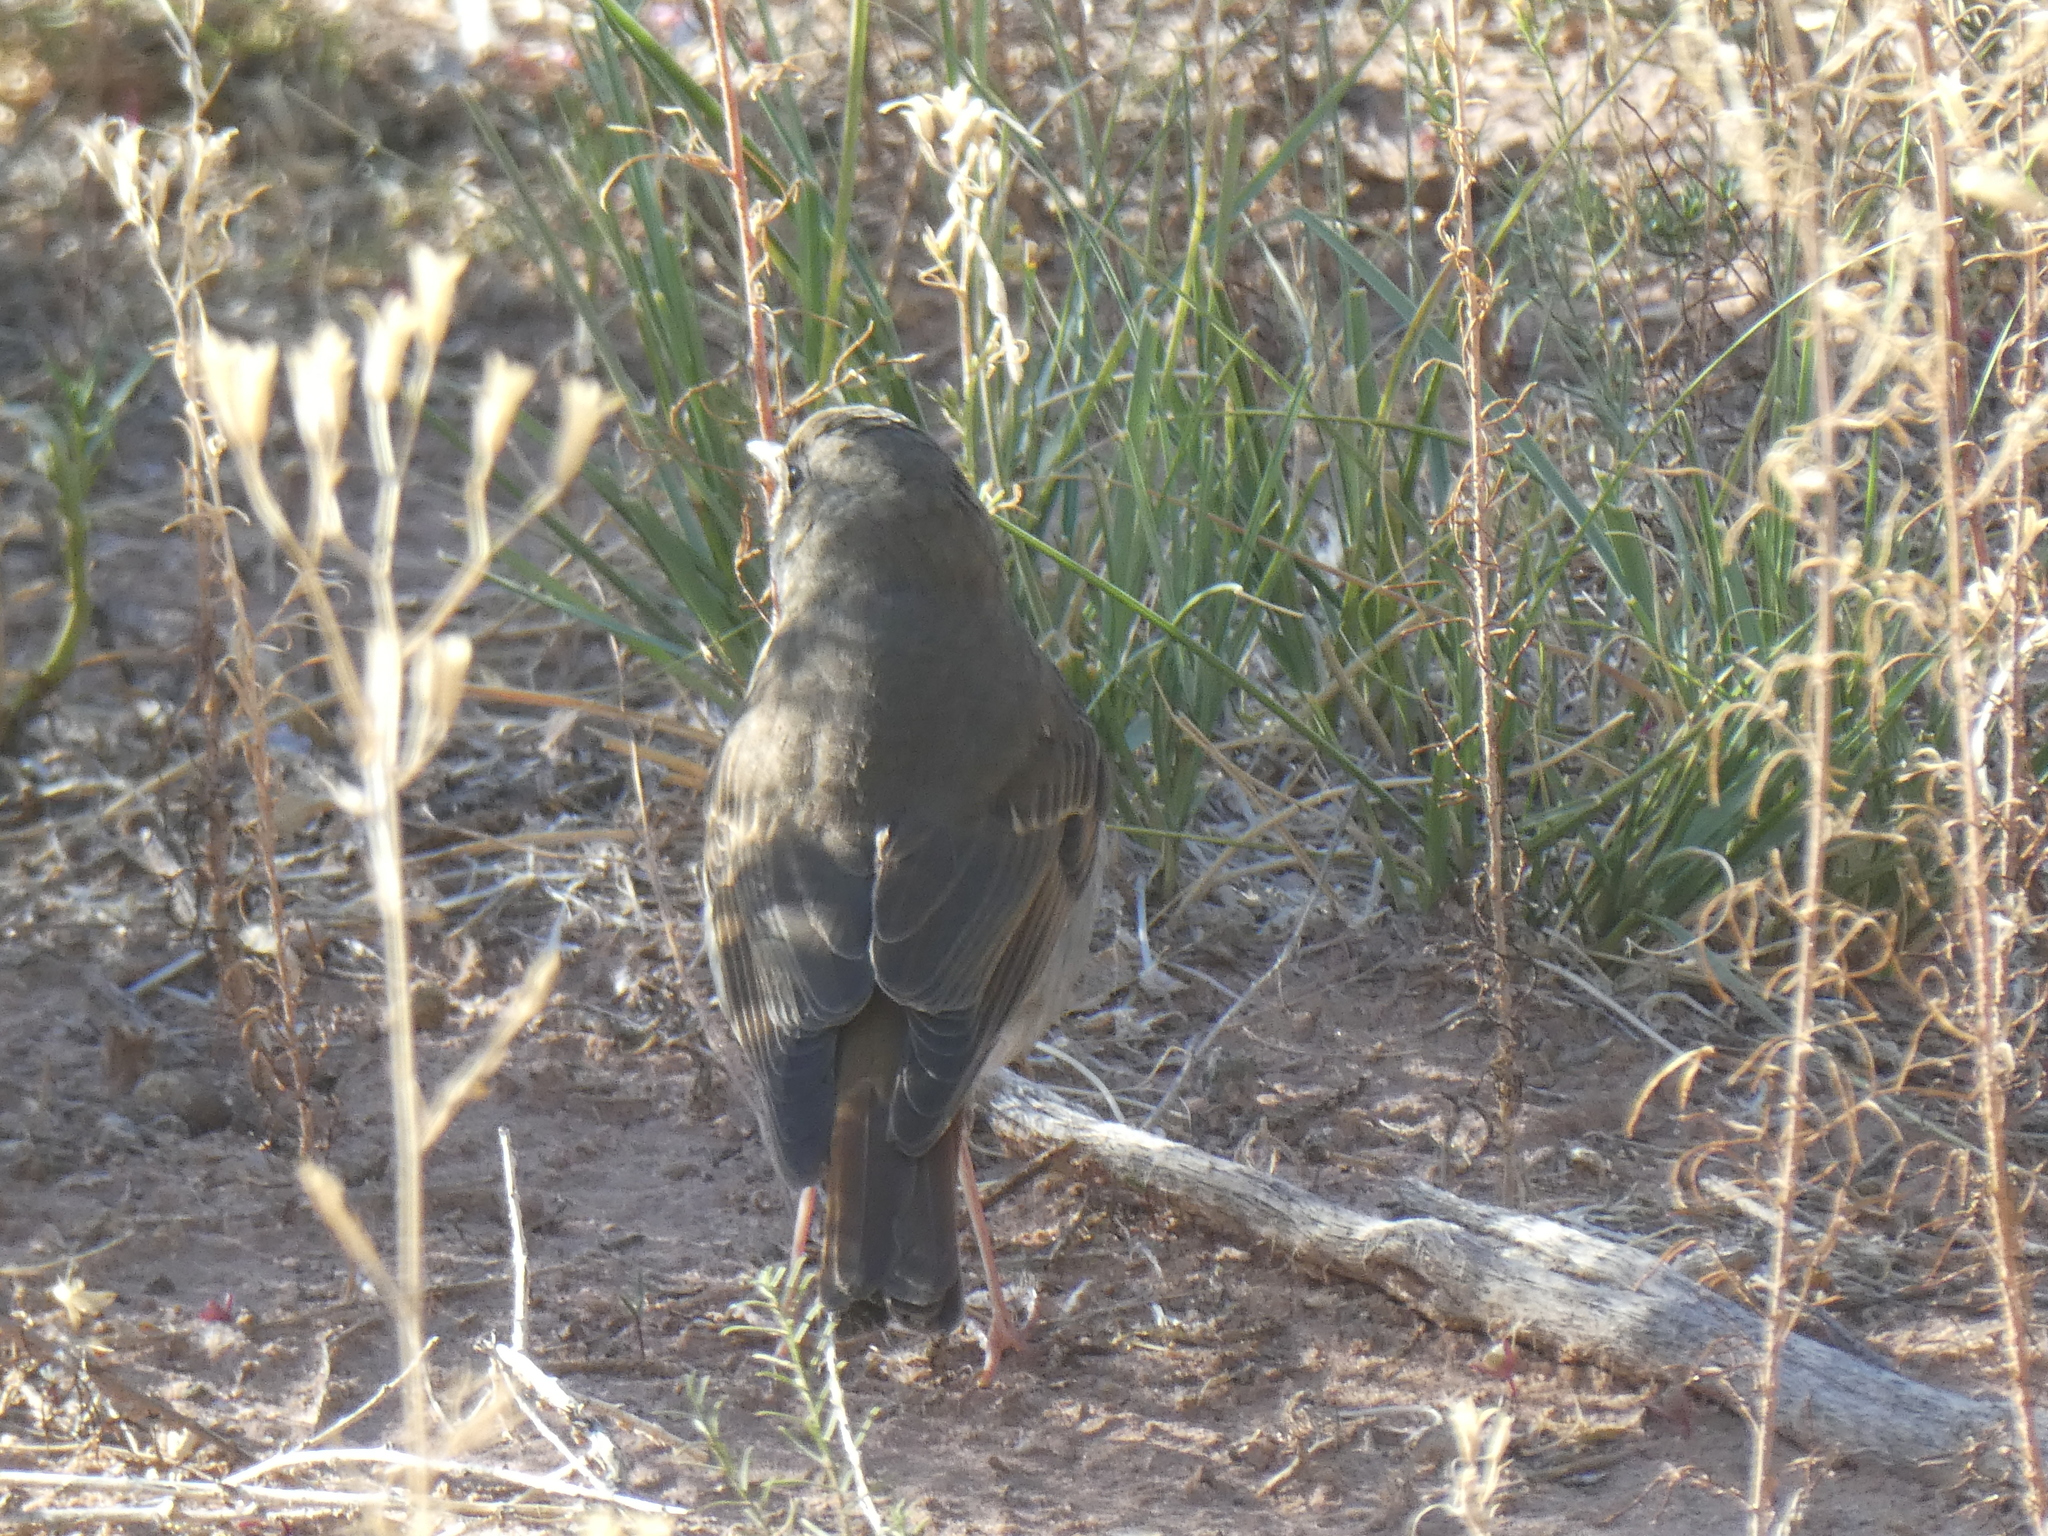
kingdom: Animalia
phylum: Chordata
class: Aves
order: Passeriformes
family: Turdidae
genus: Catharus
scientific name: Catharus guttatus
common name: Hermit thrush
